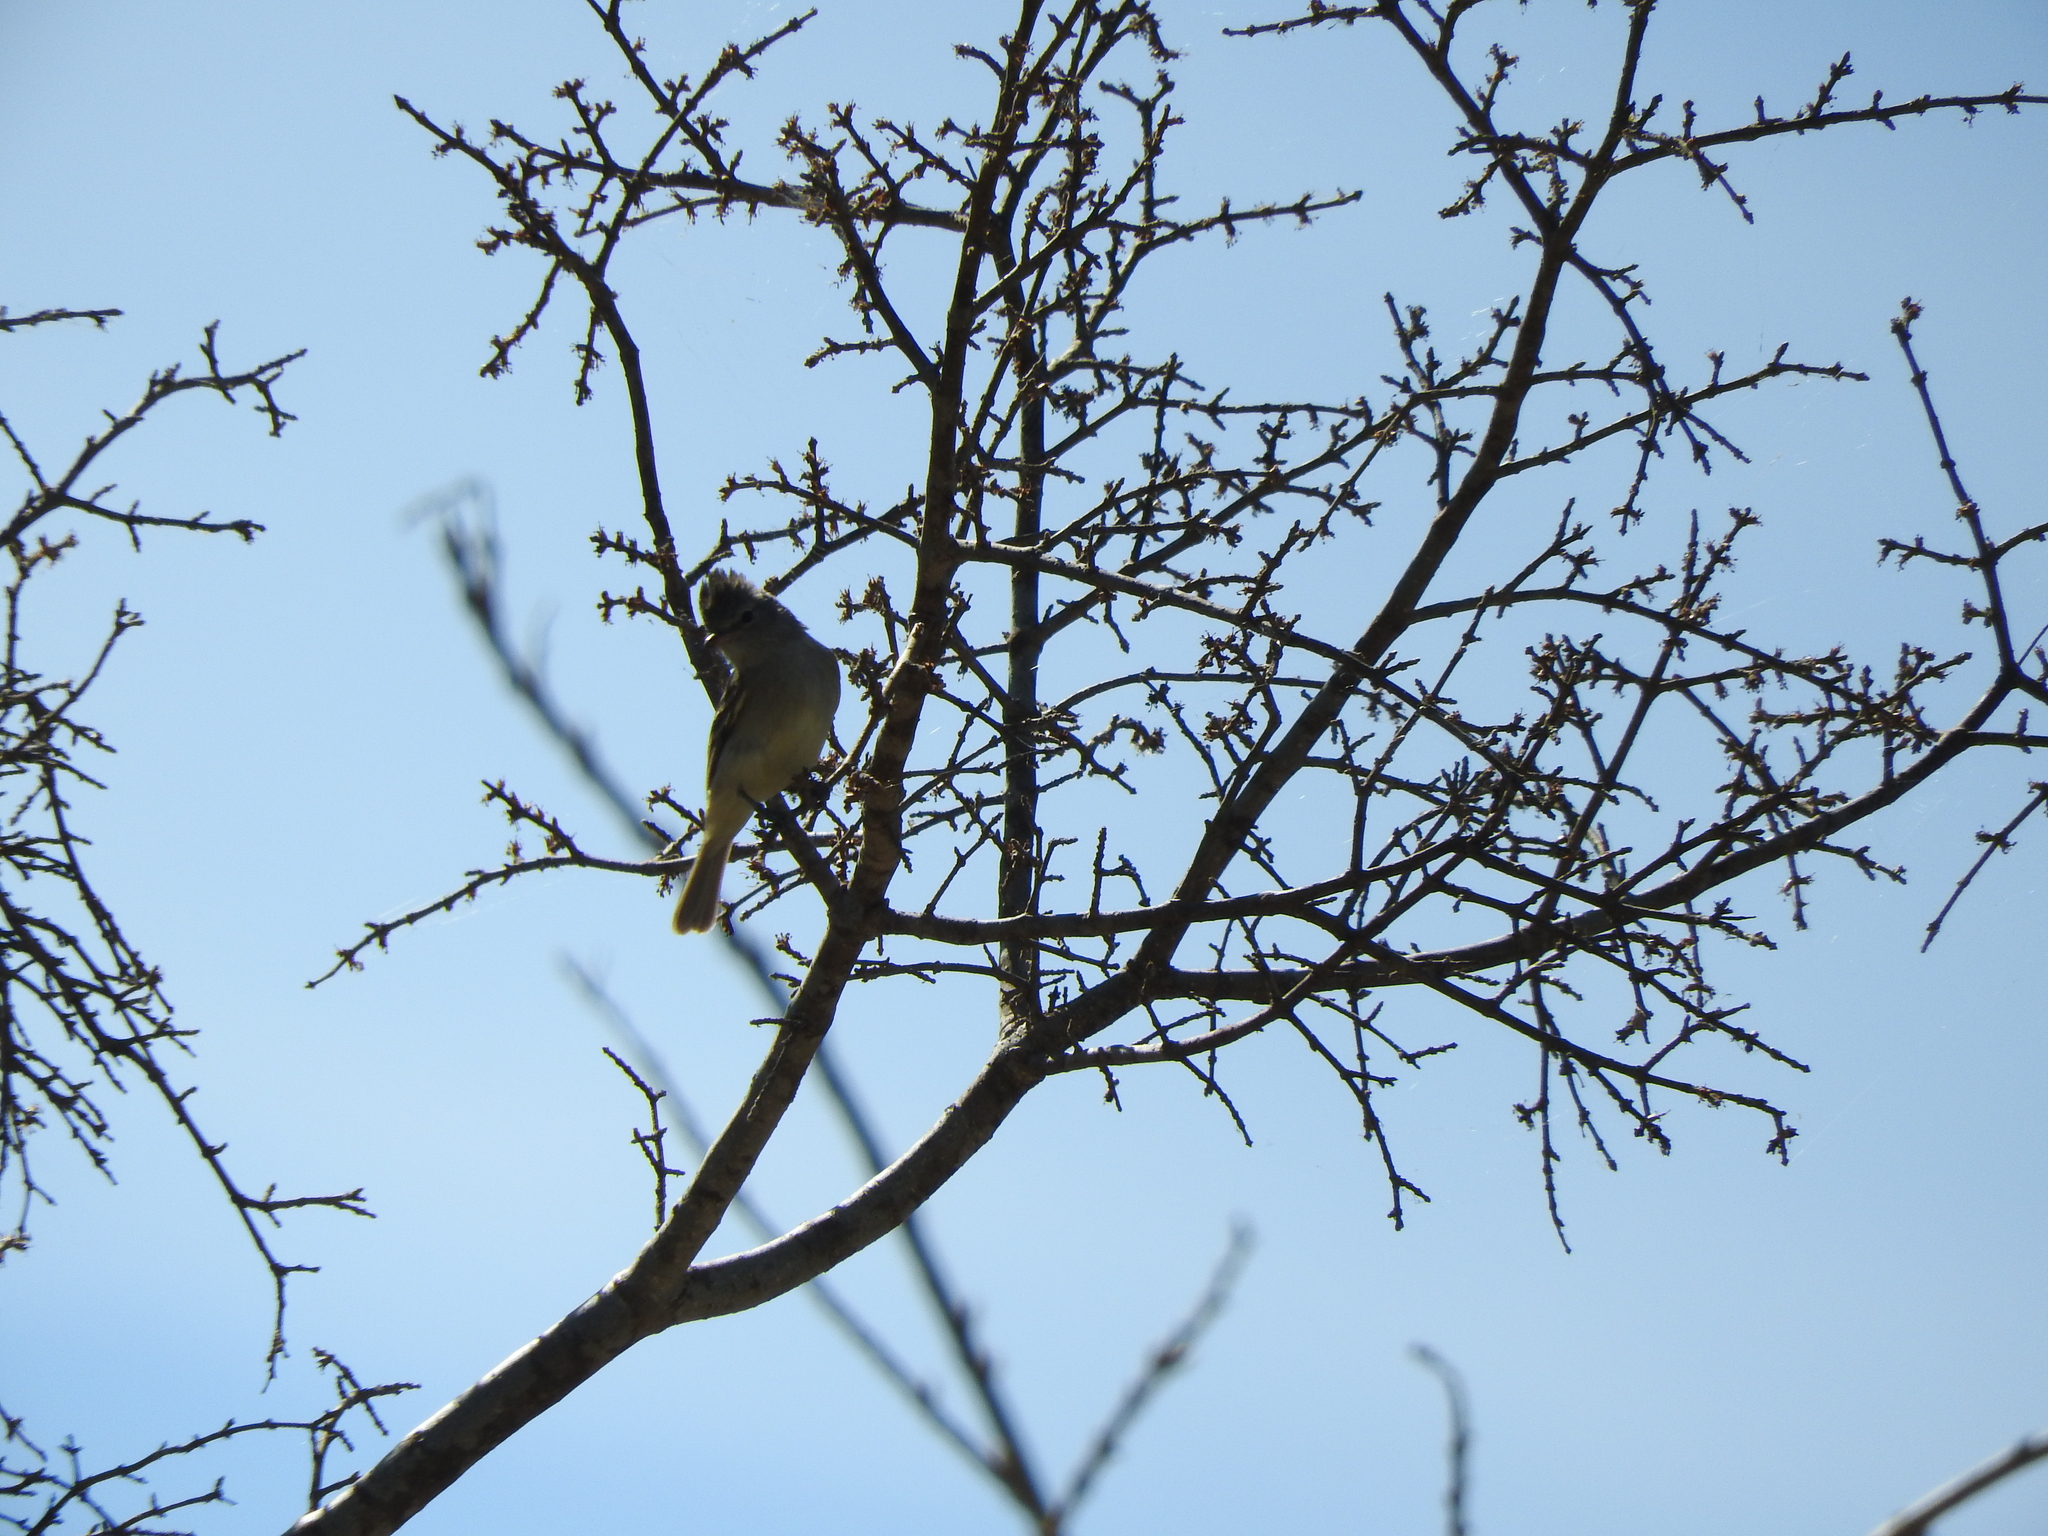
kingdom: Animalia
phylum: Chordata
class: Aves
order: Passeriformes
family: Tyrannidae
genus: Camptostoma
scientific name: Camptostoma imberbe
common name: Northern beardless-tyrannulet
